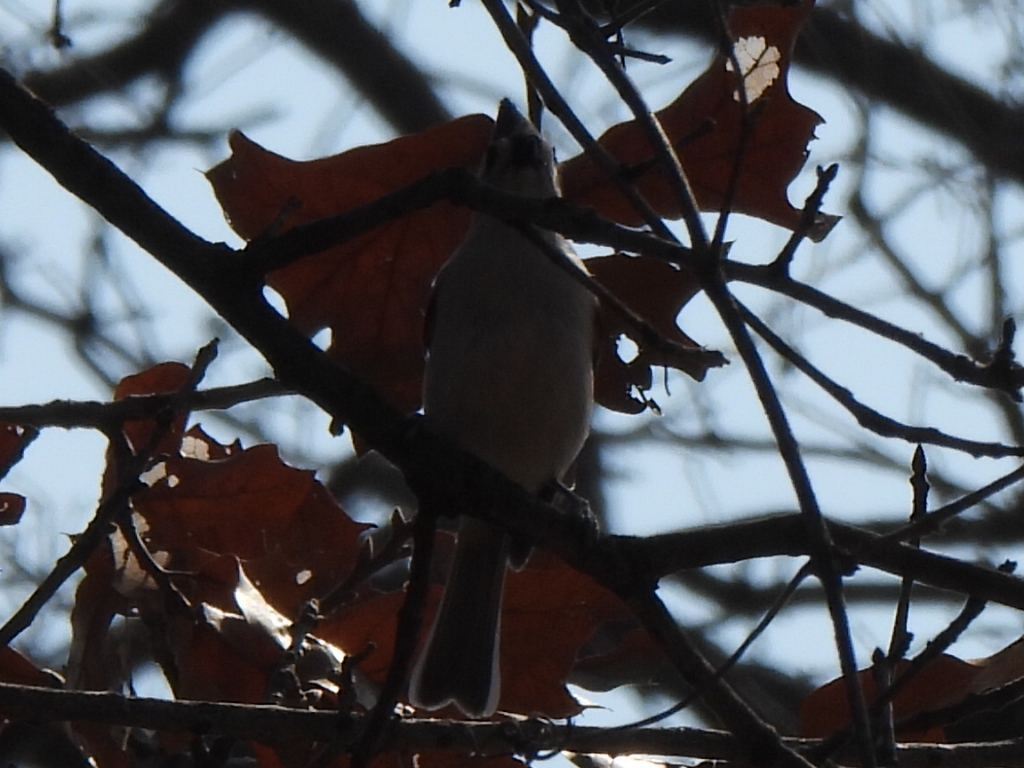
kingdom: Animalia
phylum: Chordata
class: Aves
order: Passeriformes
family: Paridae
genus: Baeolophus
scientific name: Baeolophus bicolor
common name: Tufted titmouse
